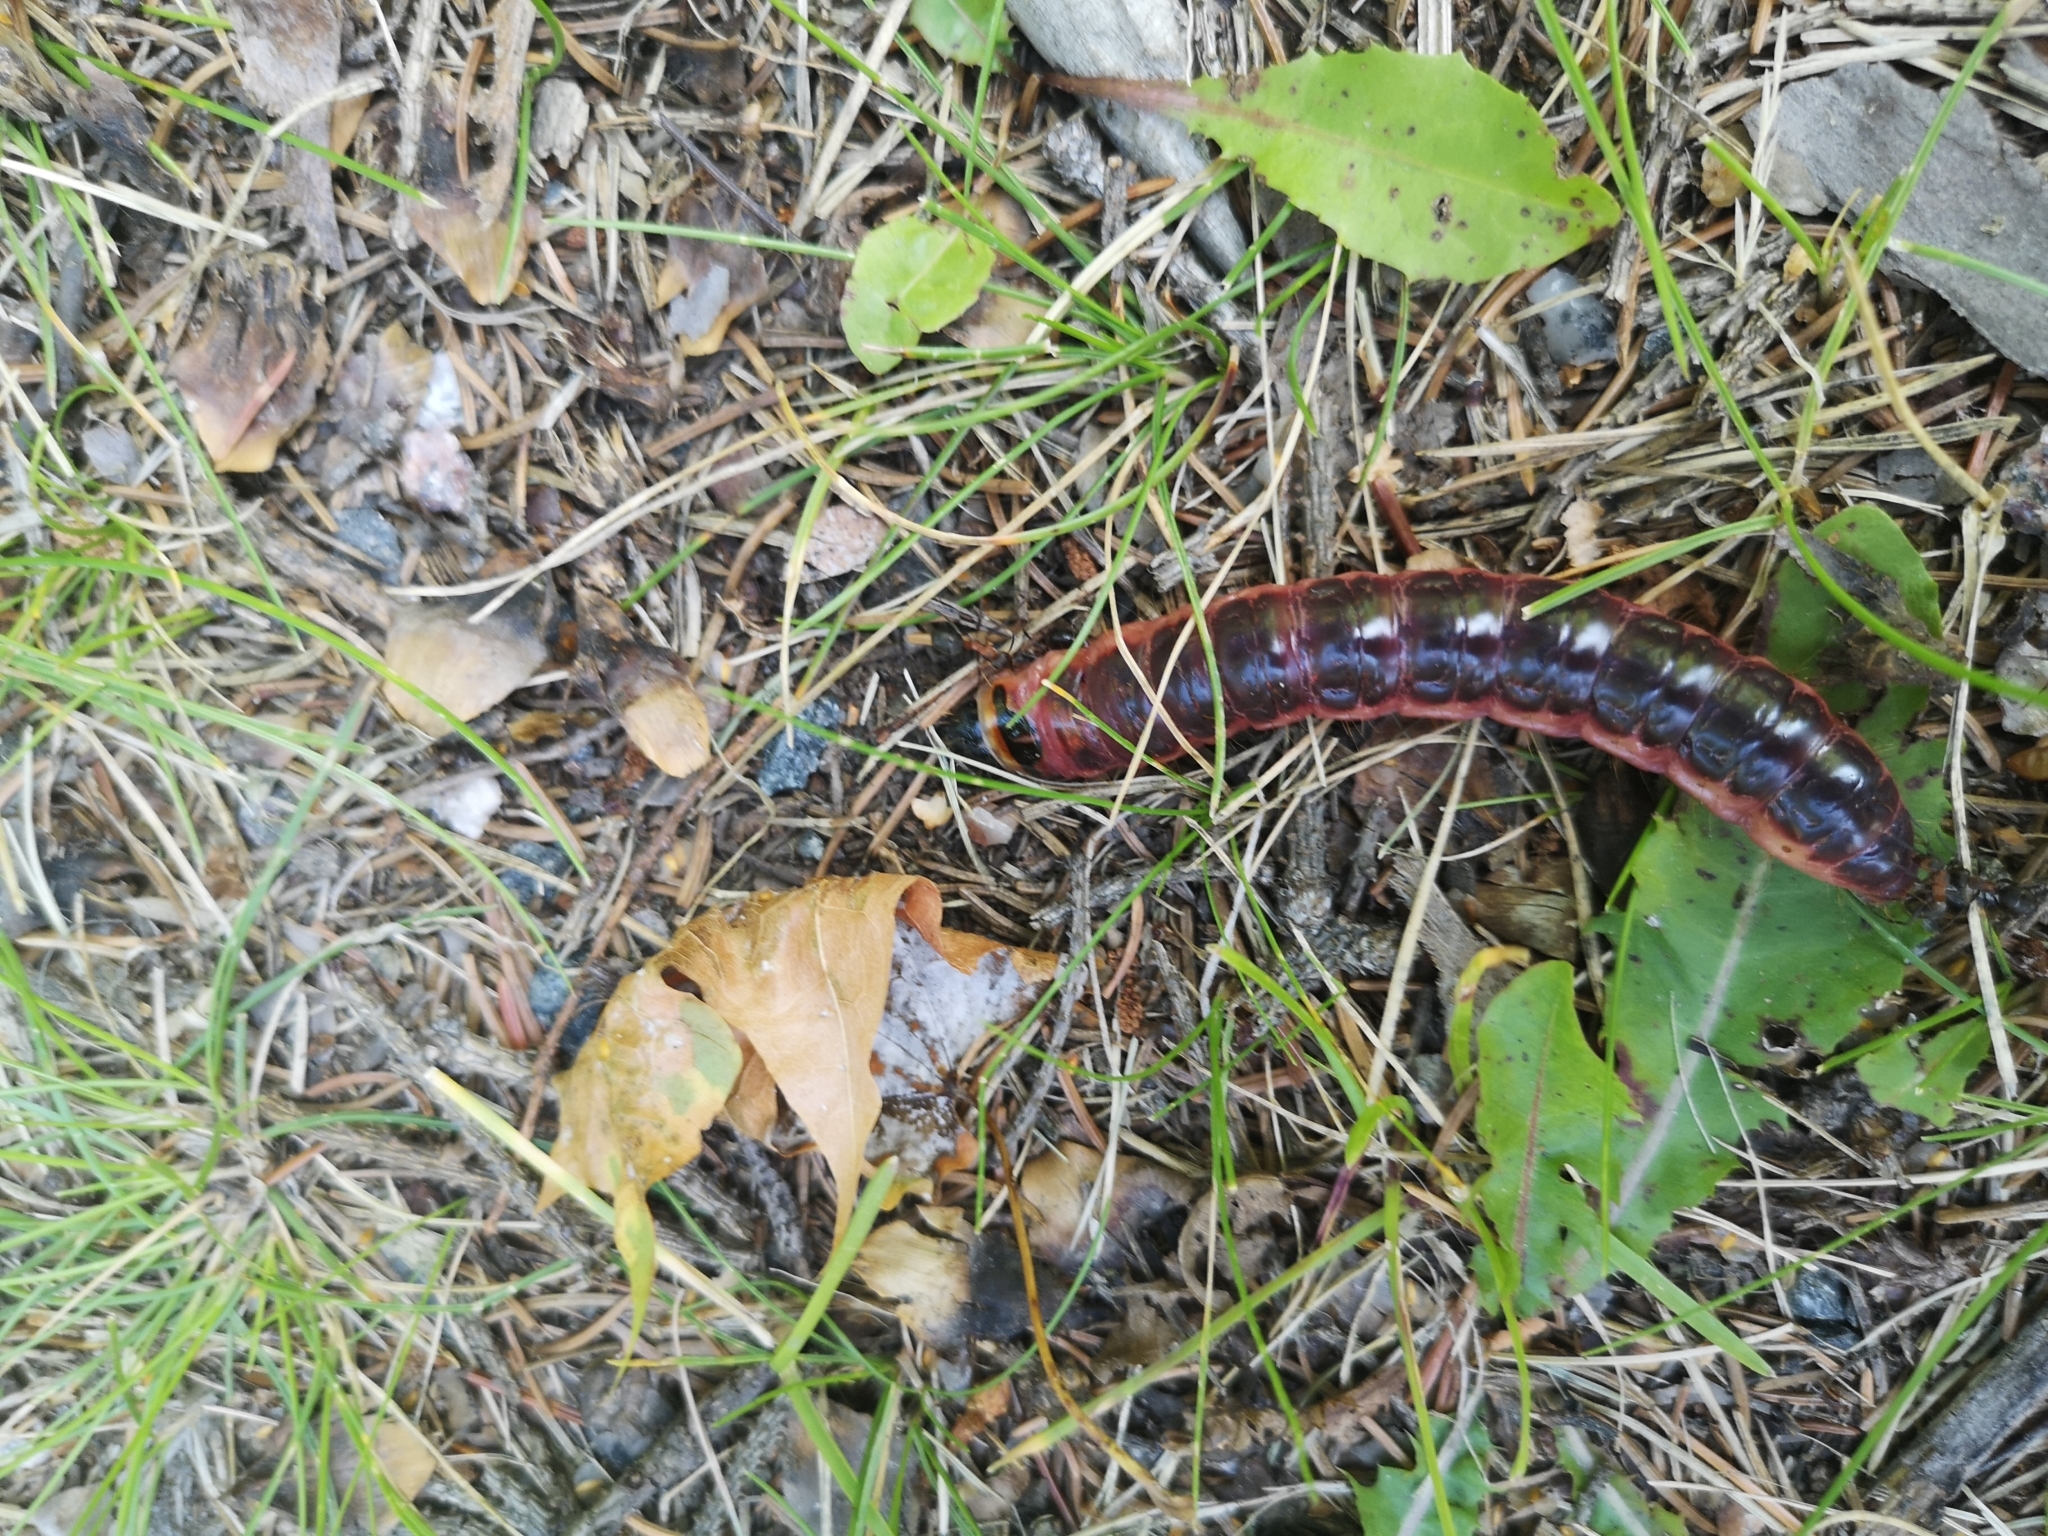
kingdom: Animalia
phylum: Arthropoda
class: Insecta
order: Lepidoptera
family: Cossidae
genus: Cossus
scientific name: Cossus cossus
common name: Goat moth
